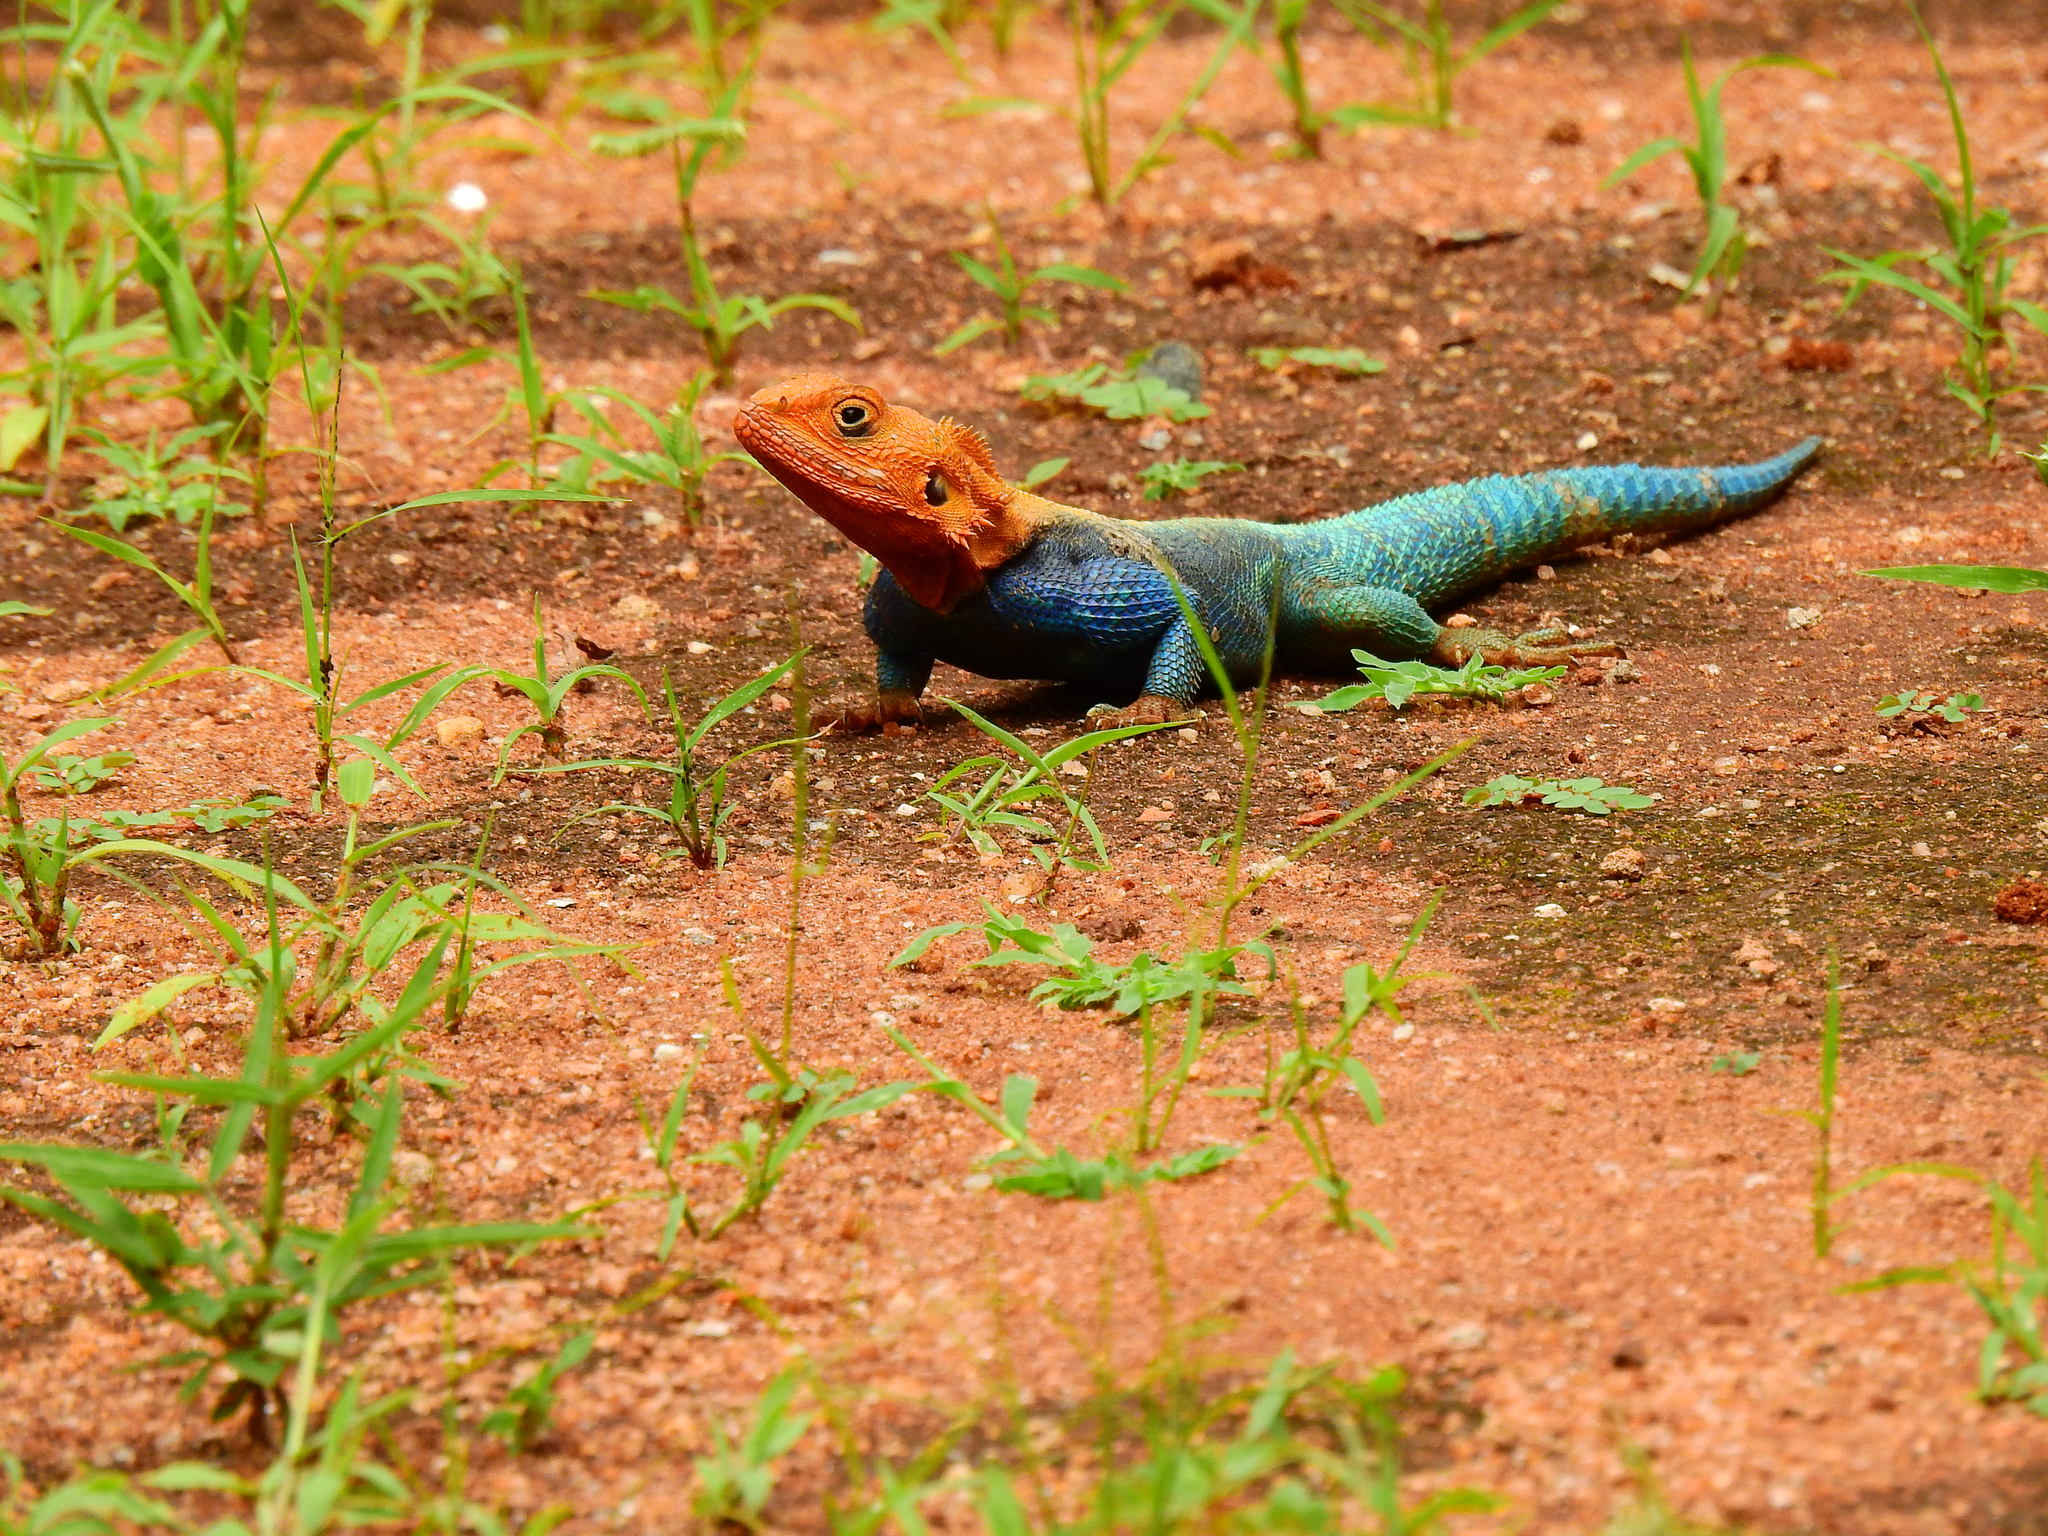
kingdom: Animalia
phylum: Chordata
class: Squamata
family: Agamidae
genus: Agama
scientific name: Agama lionotus
